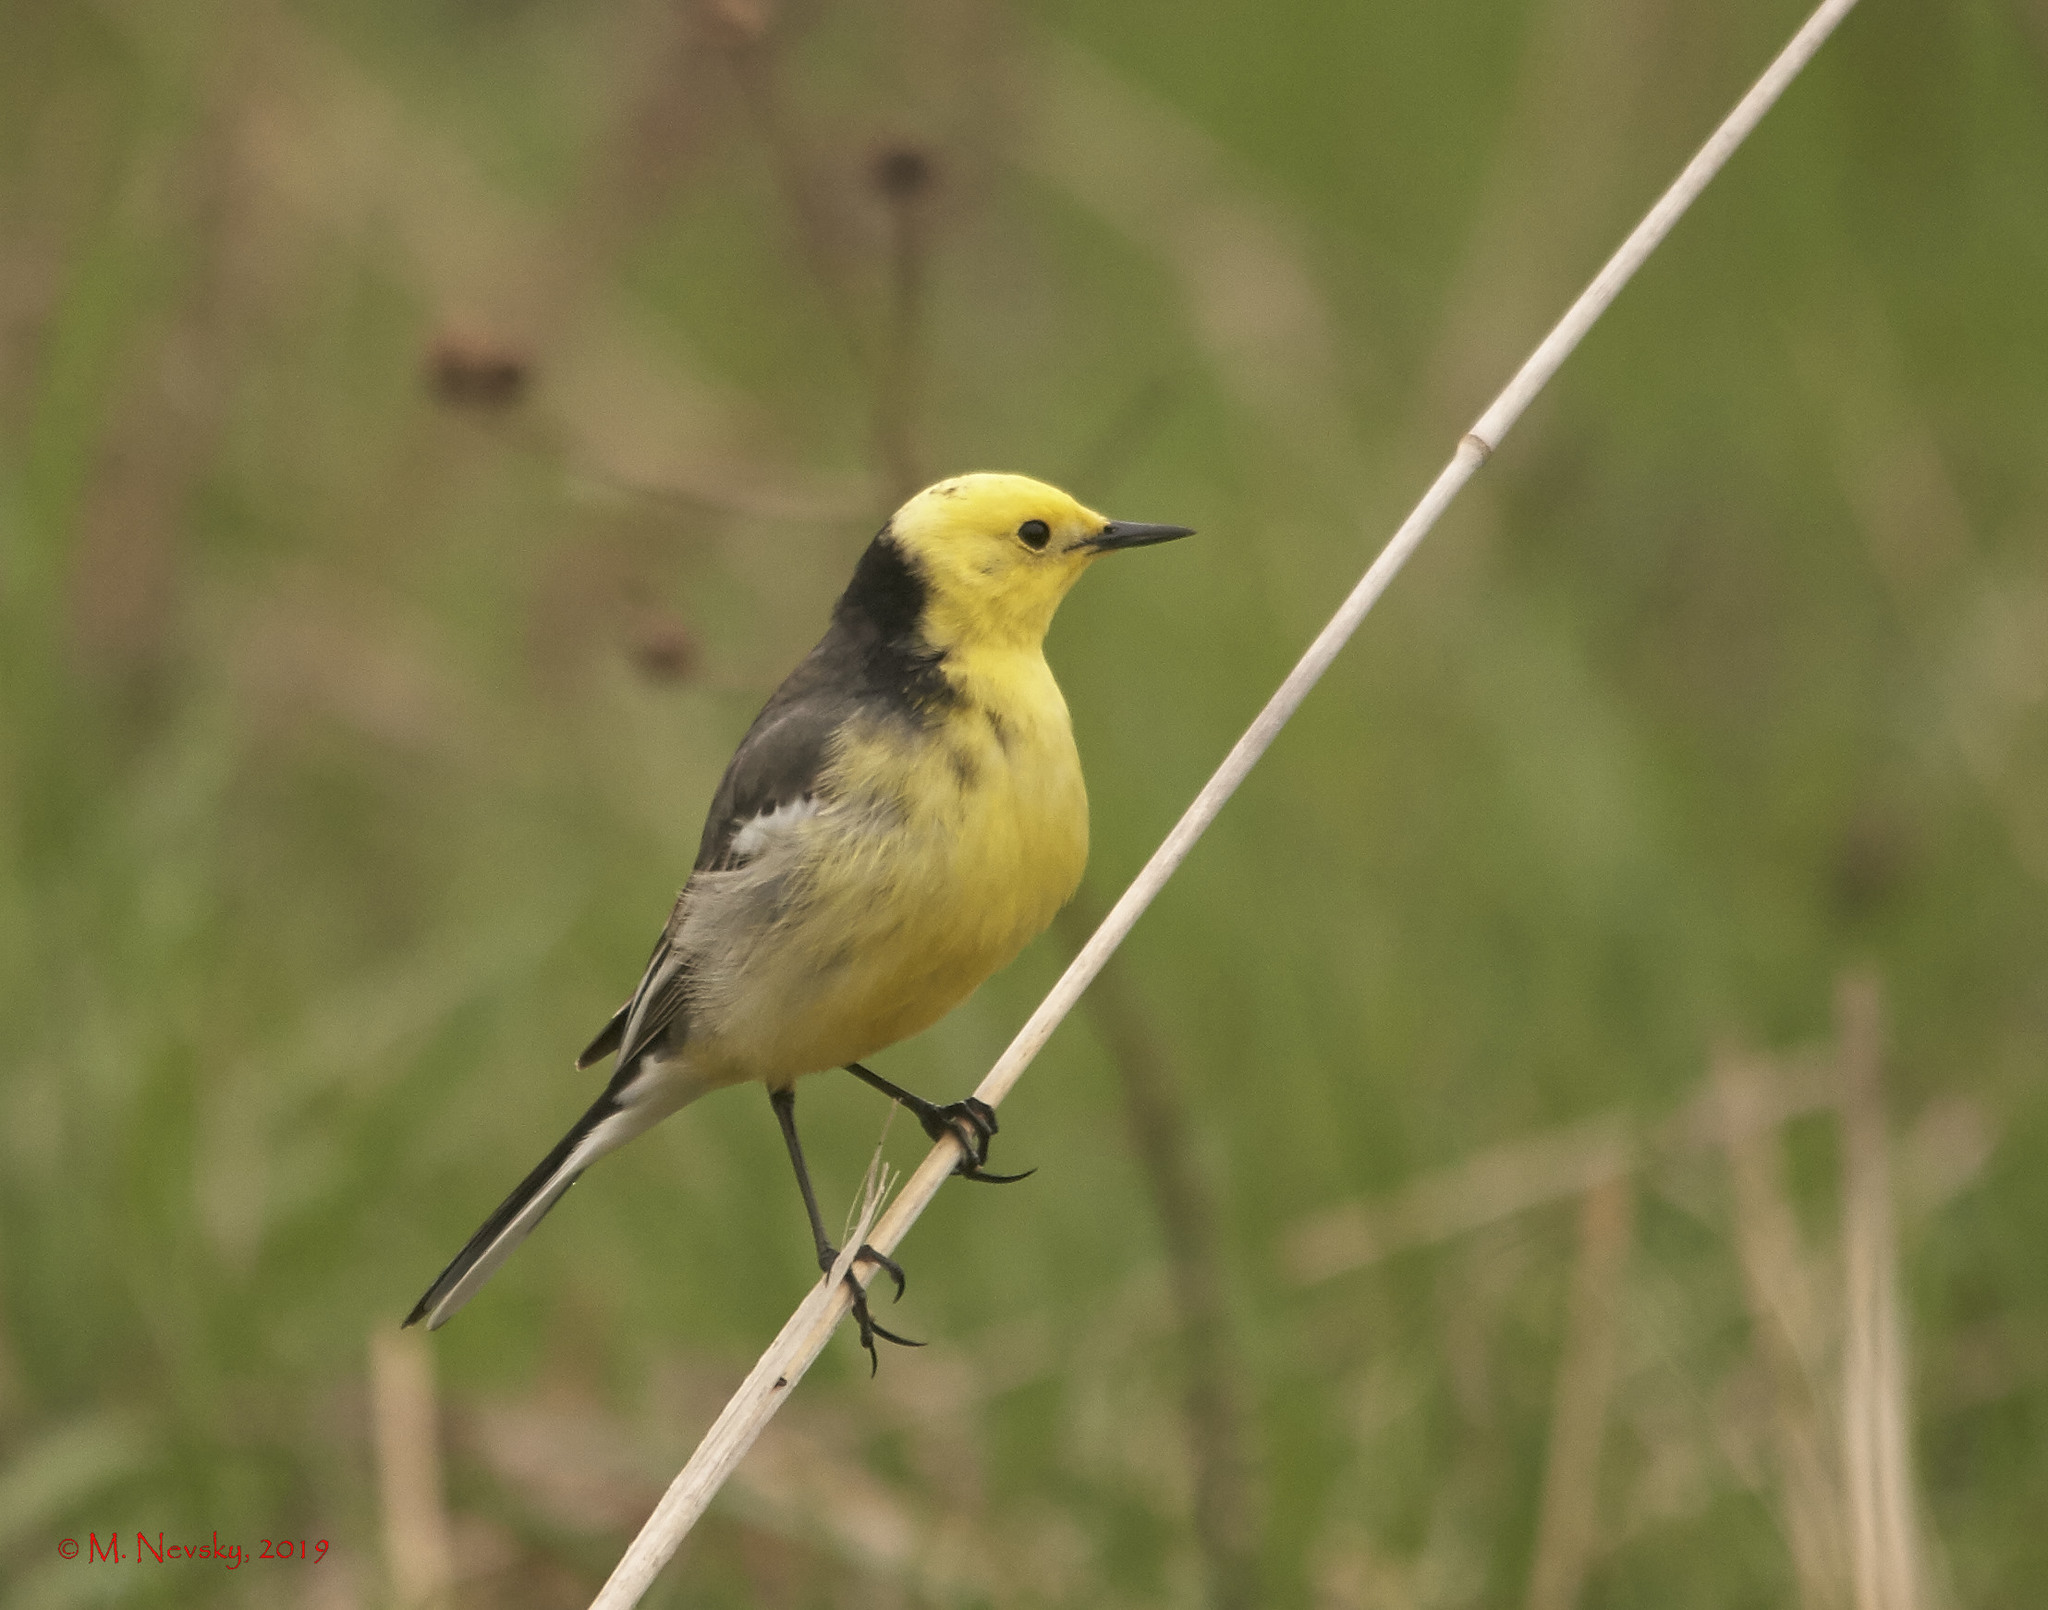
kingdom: Animalia
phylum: Chordata
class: Aves
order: Passeriformes
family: Motacillidae
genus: Motacilla
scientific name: Motacilla citreola
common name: Citrine wagtail
